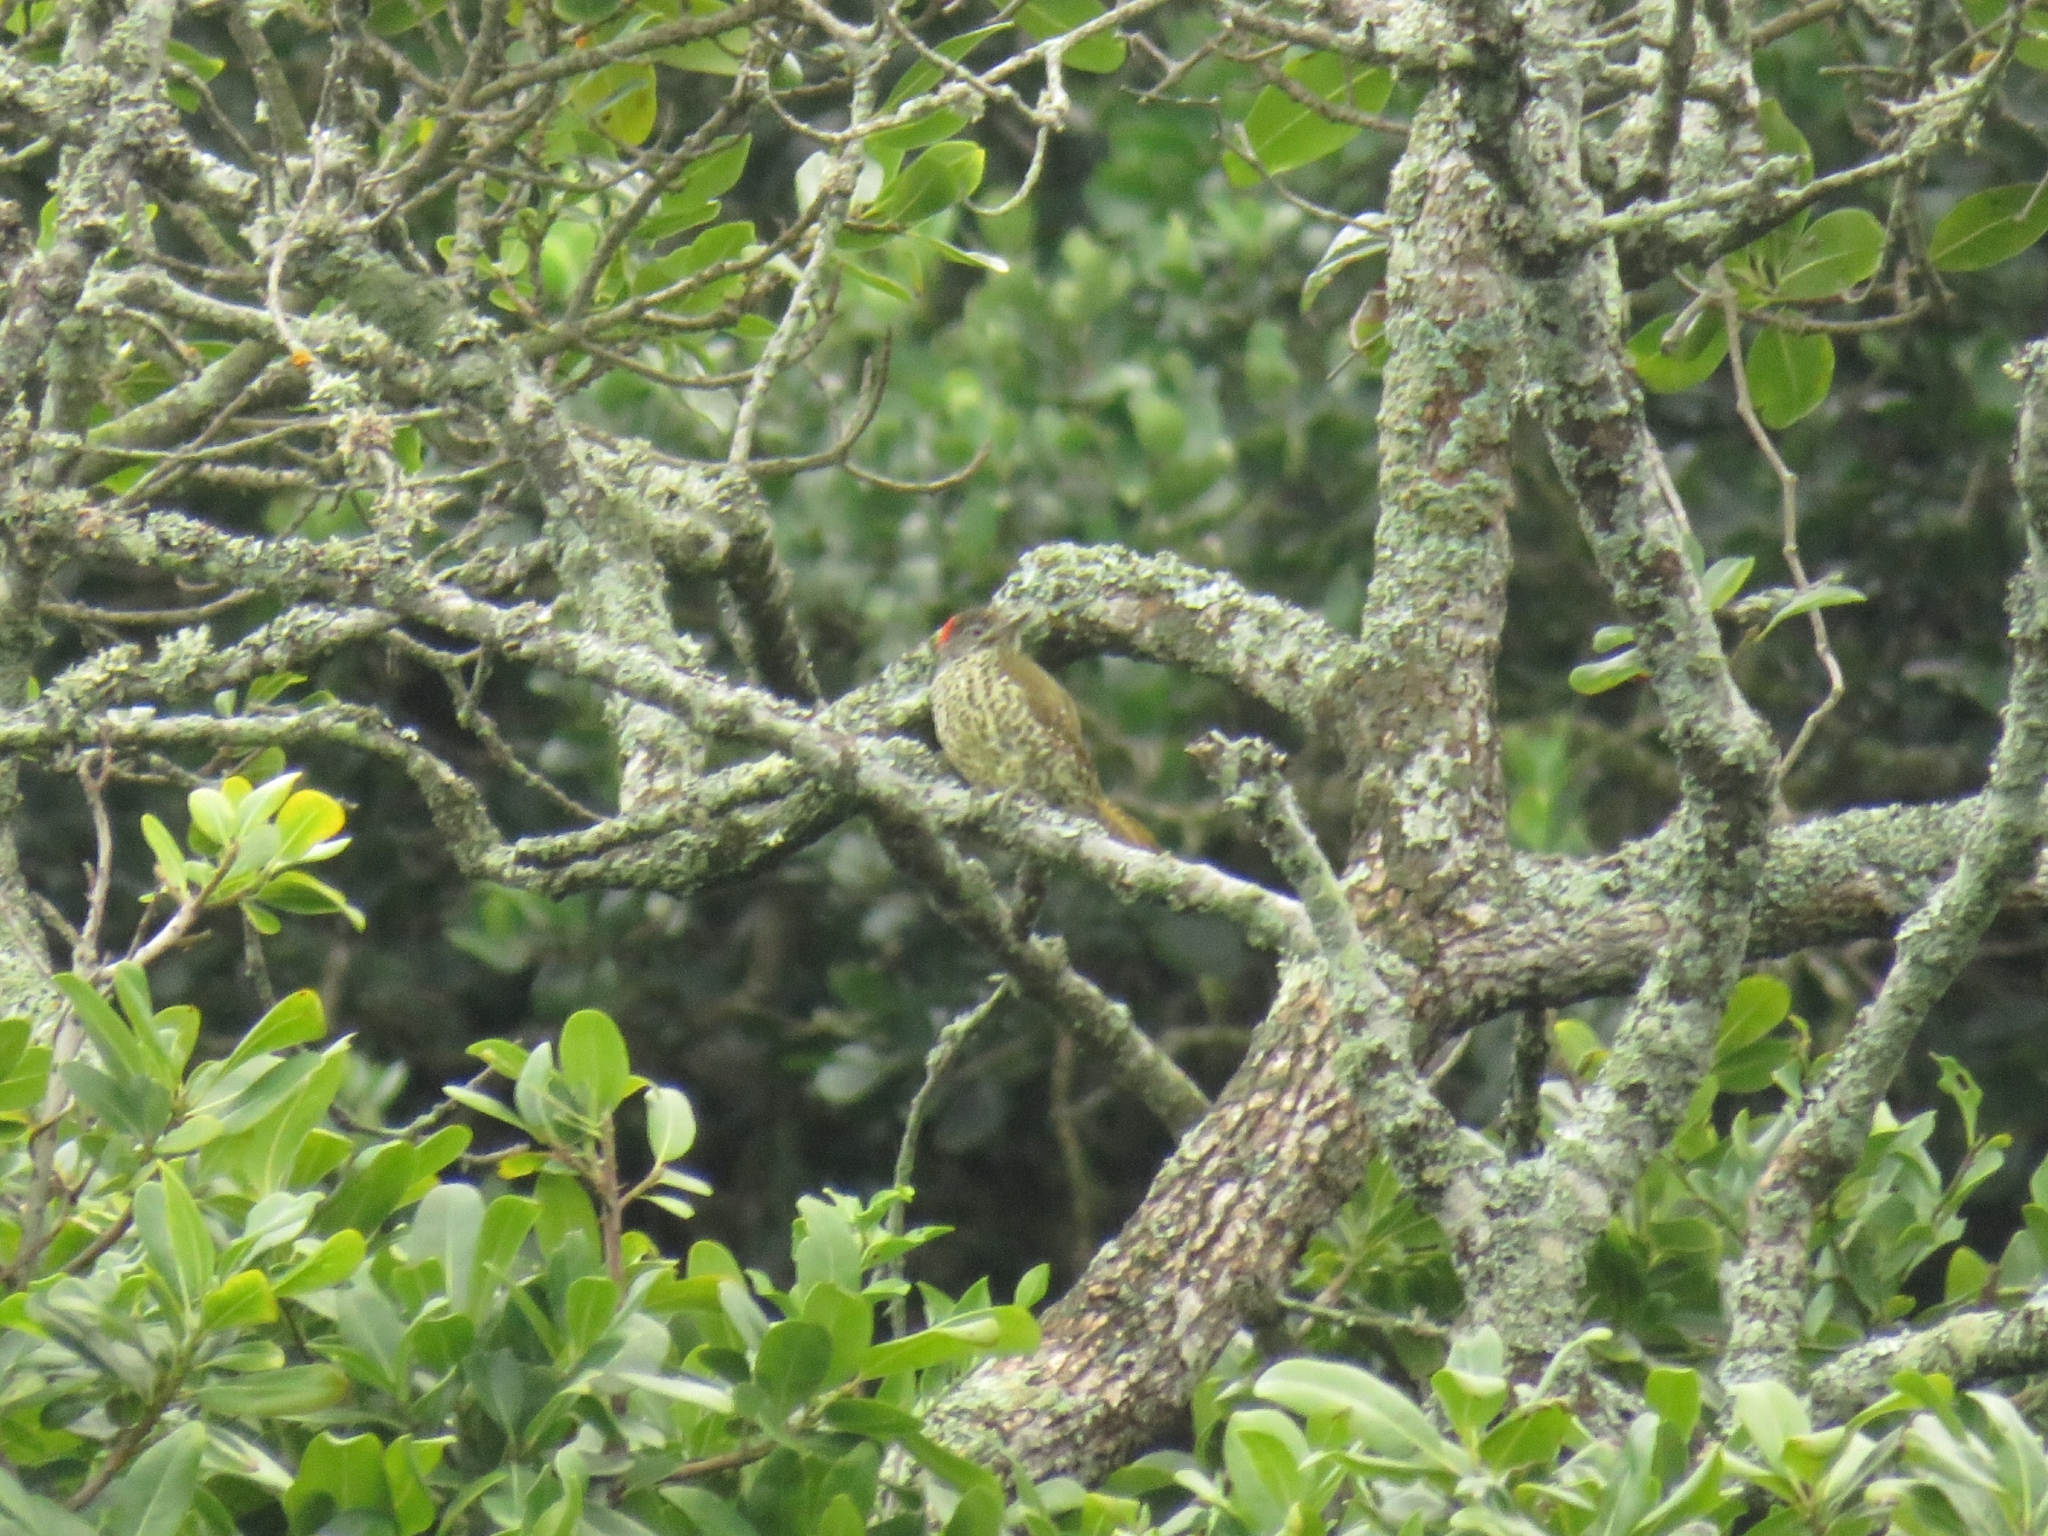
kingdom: Animalia
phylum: Chordata
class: Aves
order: Piciformes
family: Picidae
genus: Campethera
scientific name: Campethera notata
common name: Knysna woodpecker
